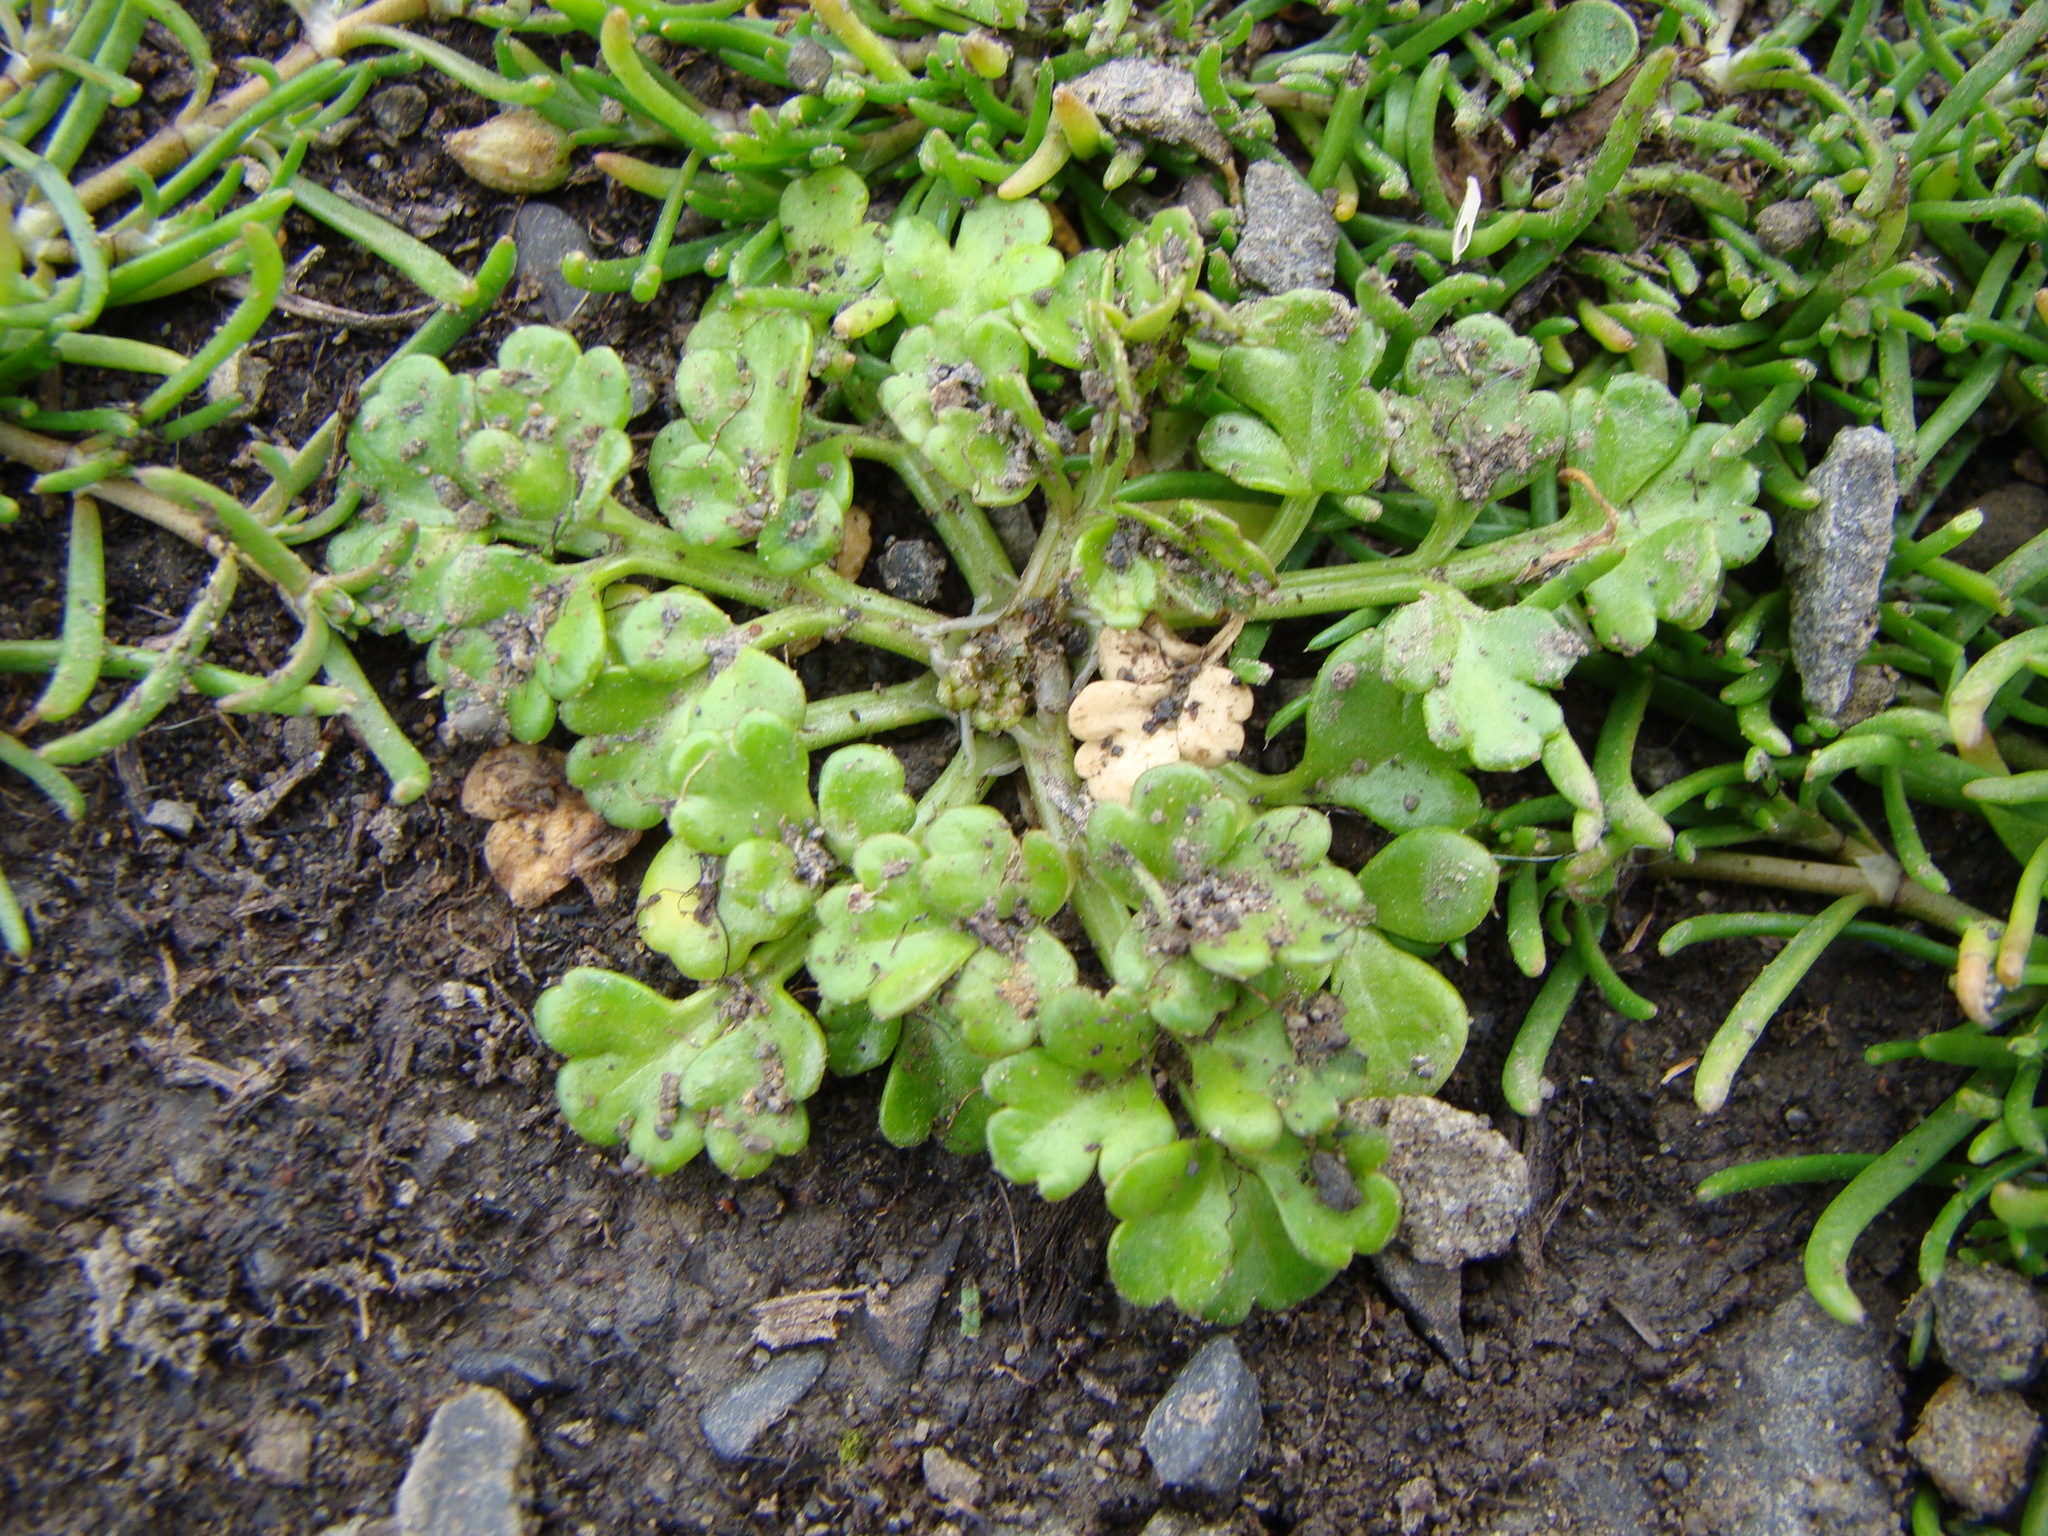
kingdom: Plantae
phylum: Tracheophyta
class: Magnoliopsida
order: Apiales
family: Apiaceae
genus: Apium
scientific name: Apium prostratum
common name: Prostrate marshwort
